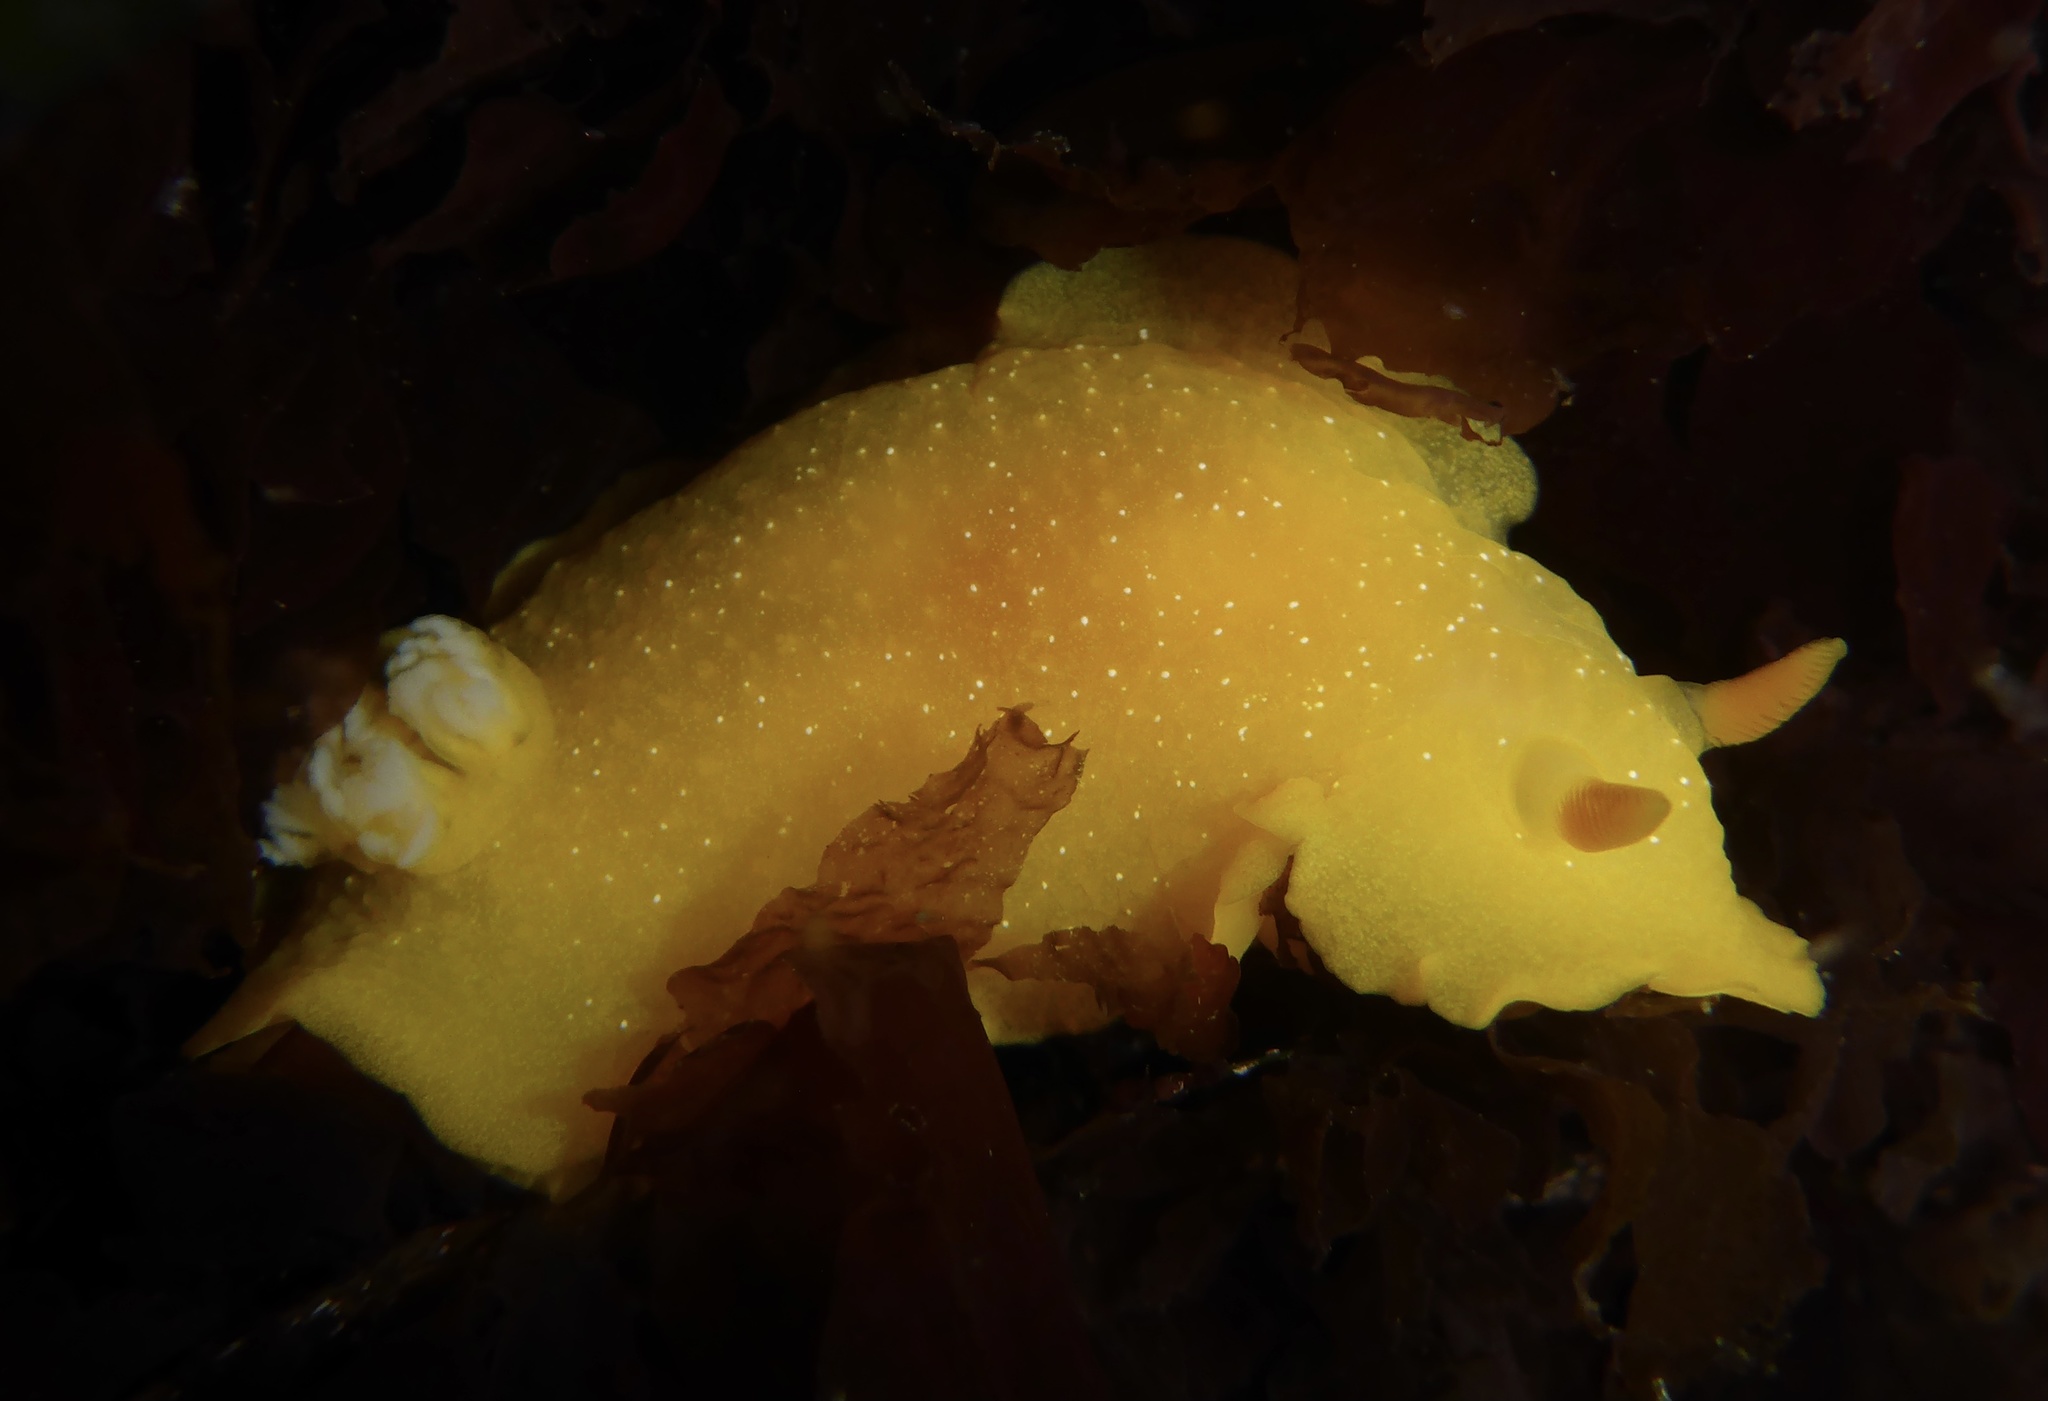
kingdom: Animalia
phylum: Mollusca
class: Gastropoda
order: Nudibranchia
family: Dendrodorididae
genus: Doriopsilla
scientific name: Doriopsilla fulva
